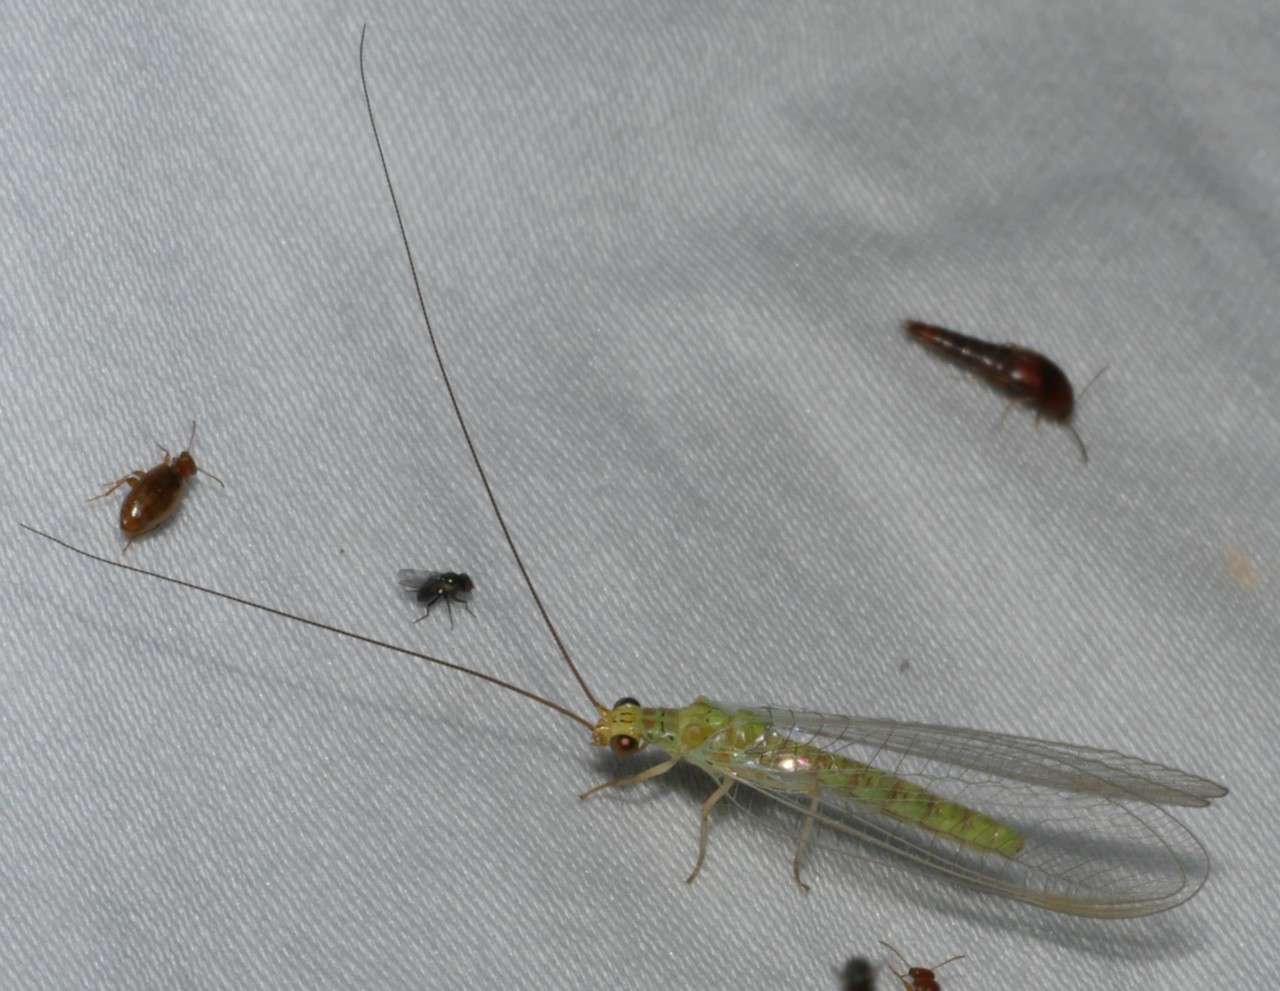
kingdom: Animalia
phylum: Arthropoda
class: Insecta
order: Neuroptera
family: Chrysopidae
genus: Plesiochrysa
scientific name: Plesiochrysa ramburi
